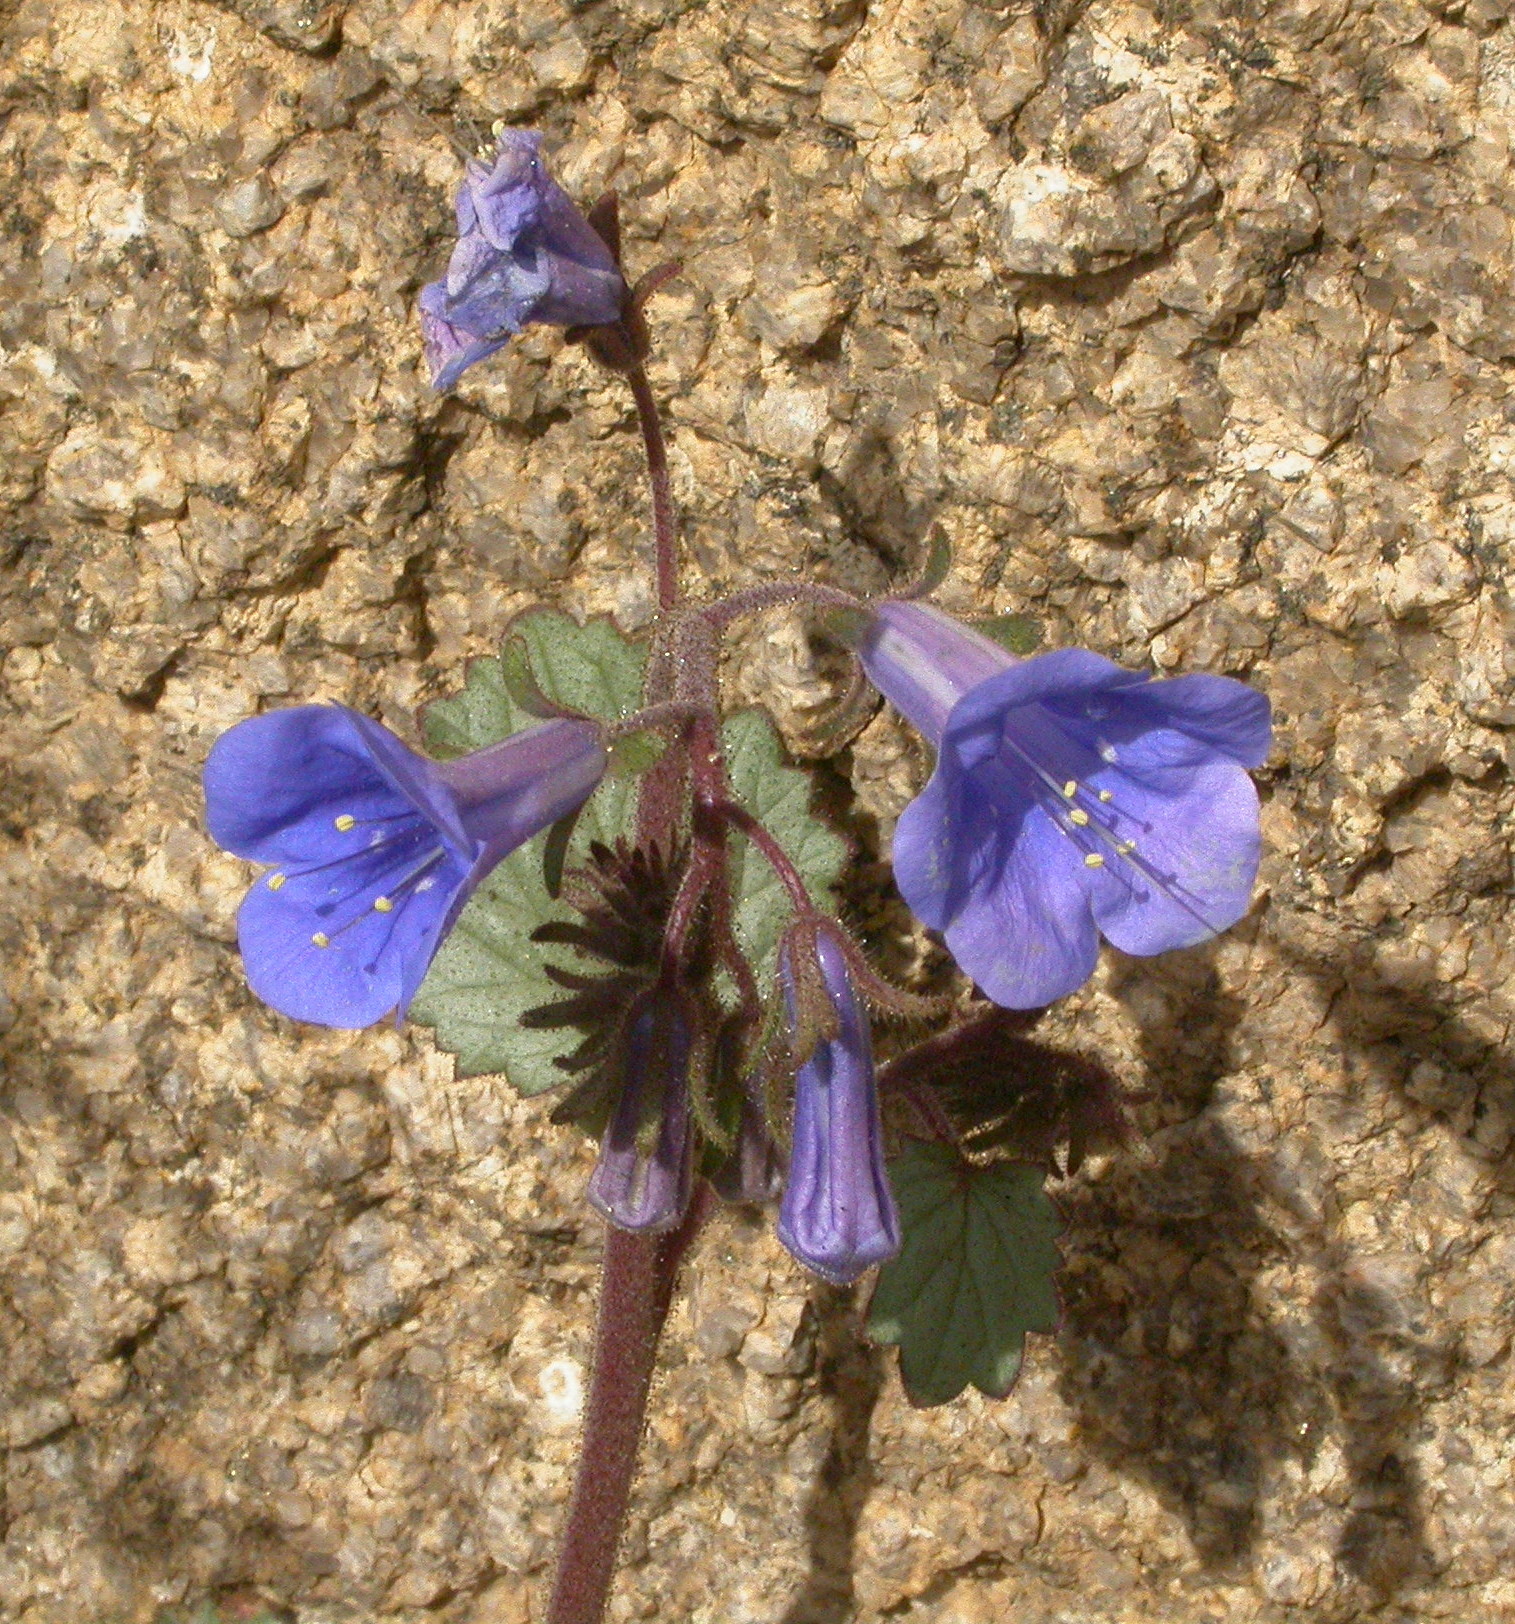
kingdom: Plantae
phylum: Tracheophyta
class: Magnoliopsida
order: Boraginales
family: Hydrophyllaceae
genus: Phacelia
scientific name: Phacelia campanularia
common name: California bluebell
